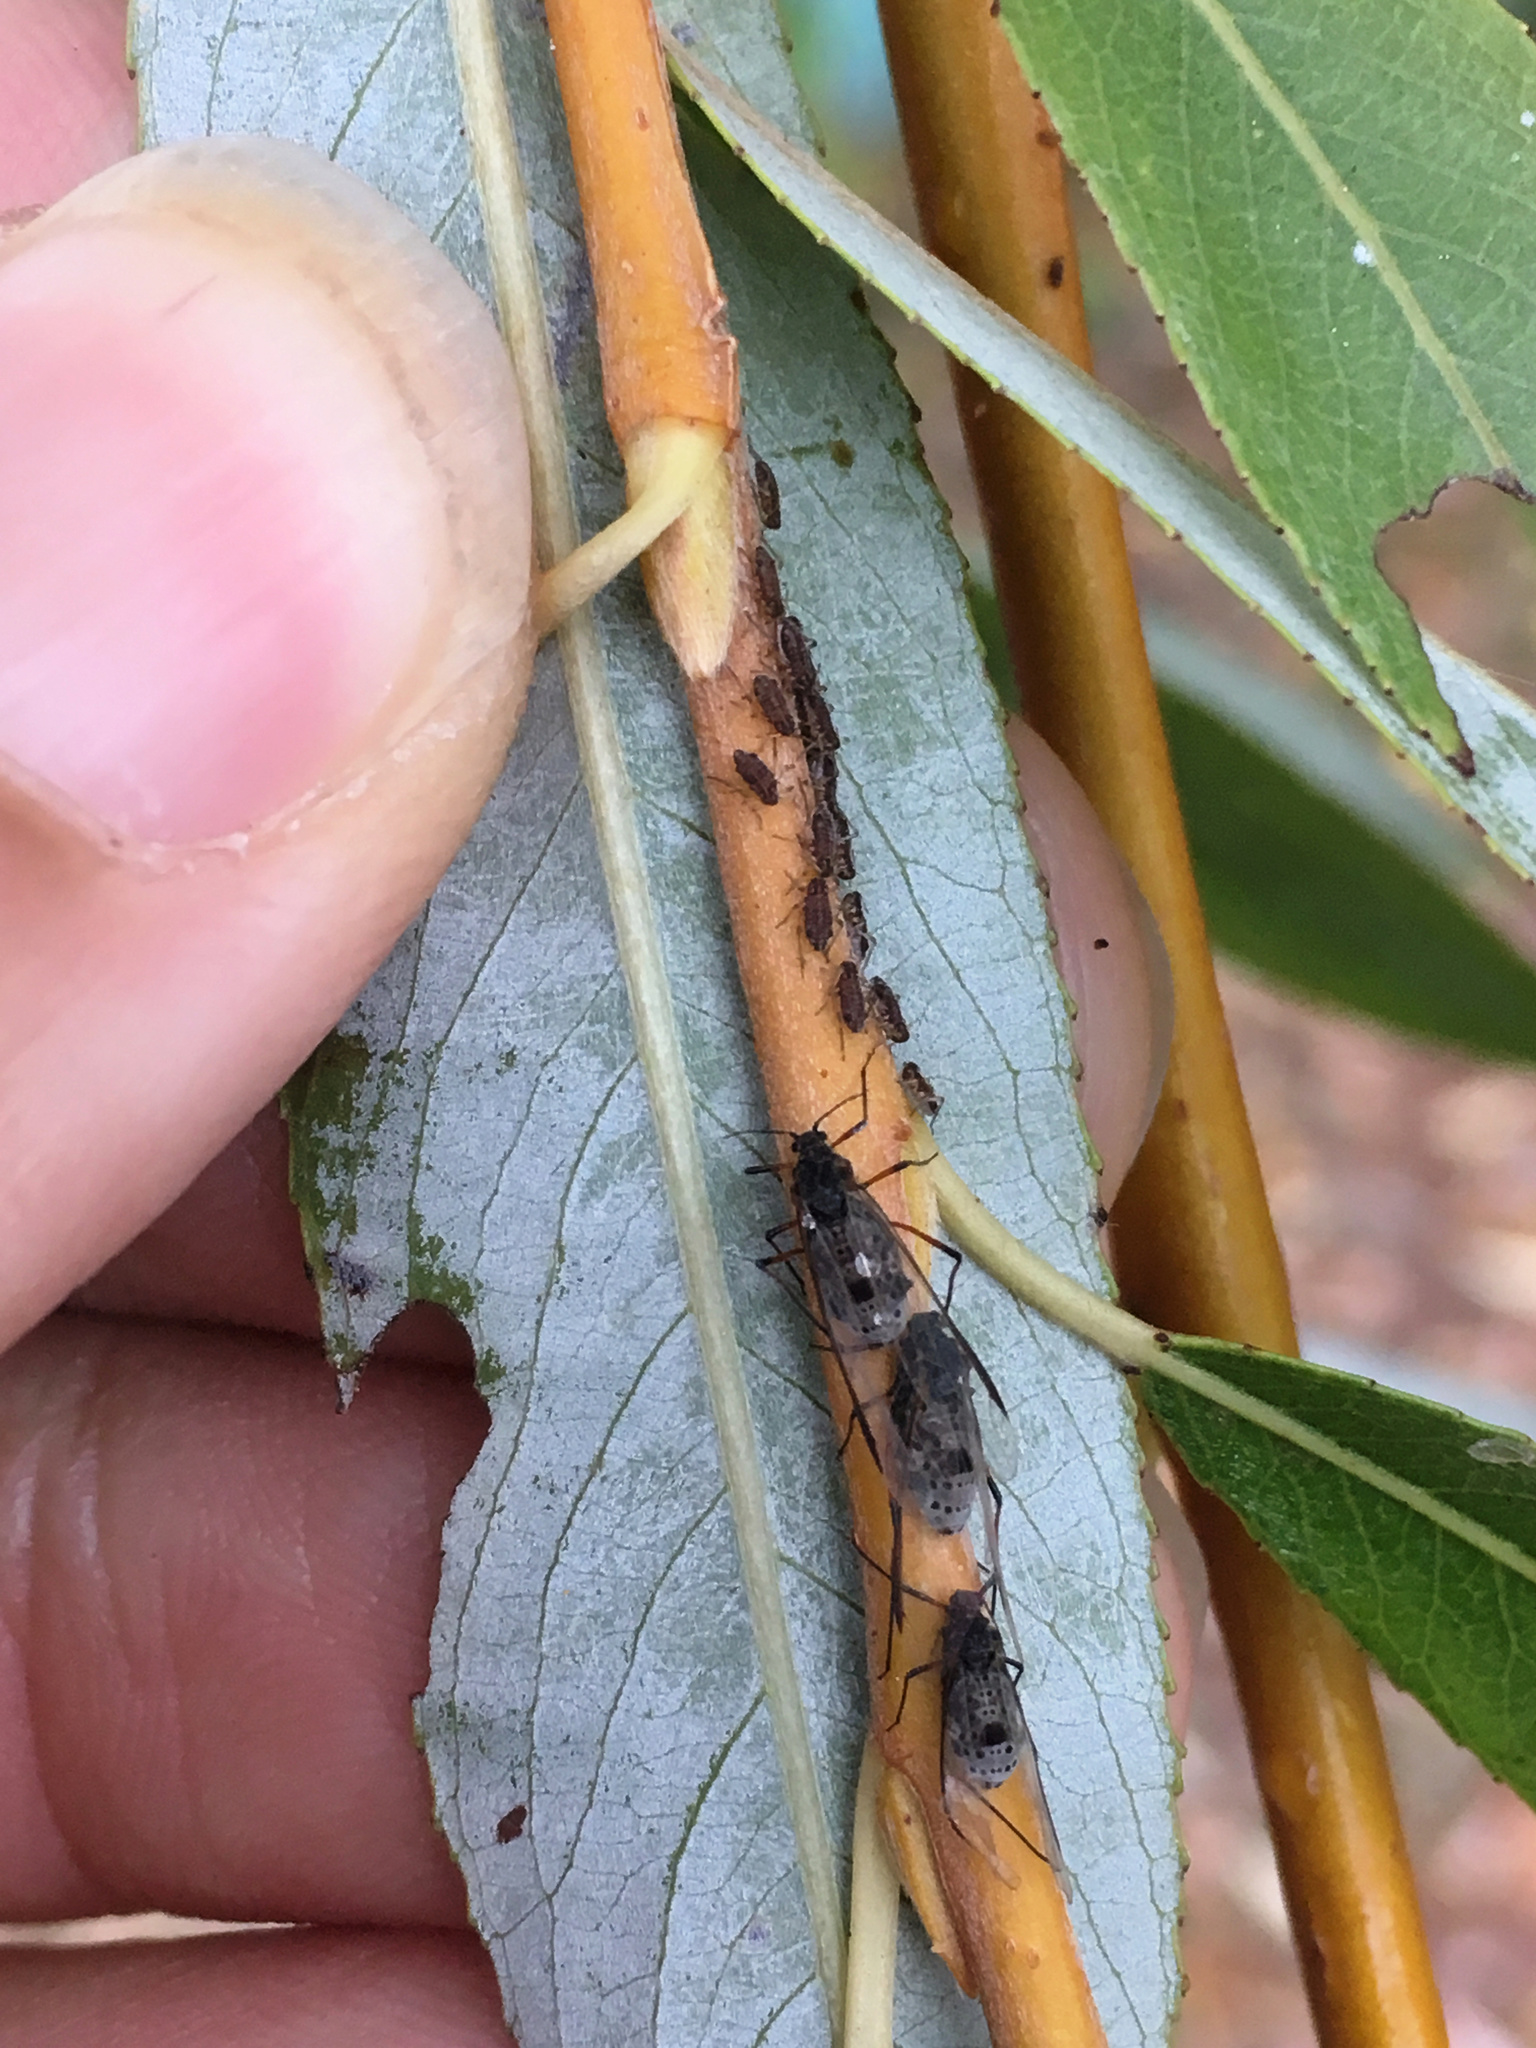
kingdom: Animalia
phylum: Arthropoda
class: Insecta
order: Hemiptera
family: Aphididae
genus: Tuberolachnus
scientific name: Tuberolachnus salignus
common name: Giant willow aphid
